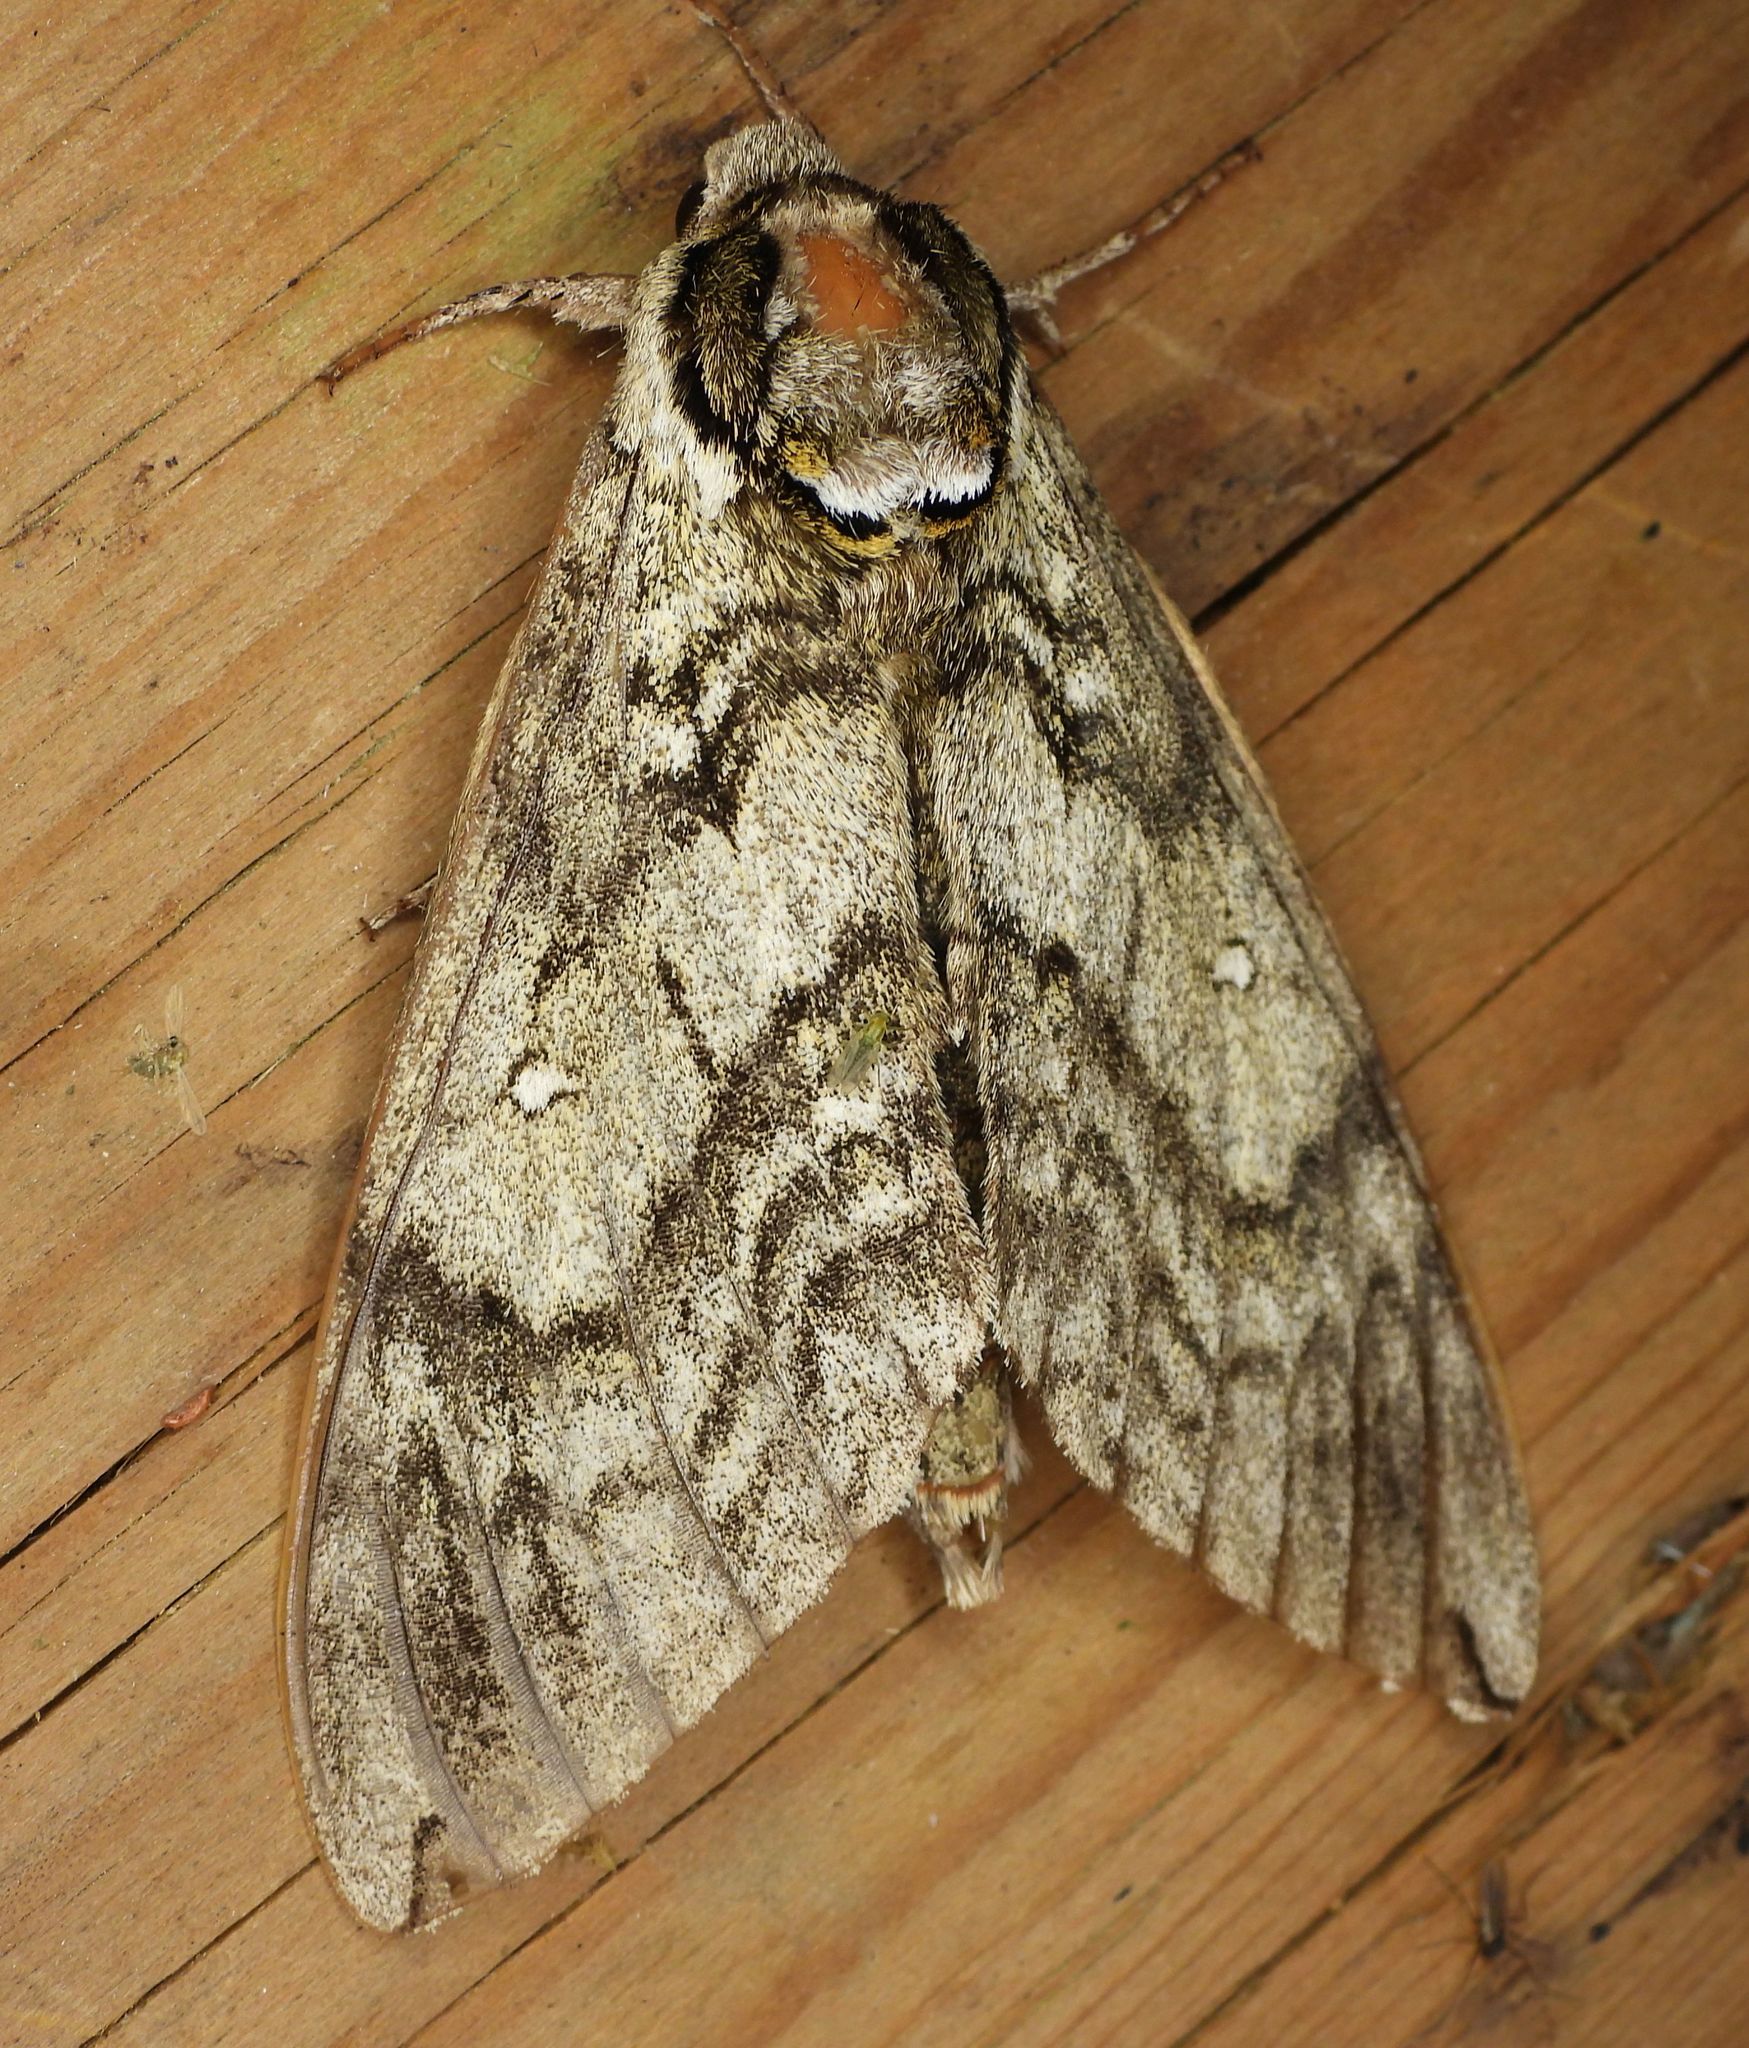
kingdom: Animalia
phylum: Arthropoda
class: Insecta
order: Lepidoptera
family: Sphingidae
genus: Ceratomia
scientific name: Ceratomia undulosa
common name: Waved sphinx
